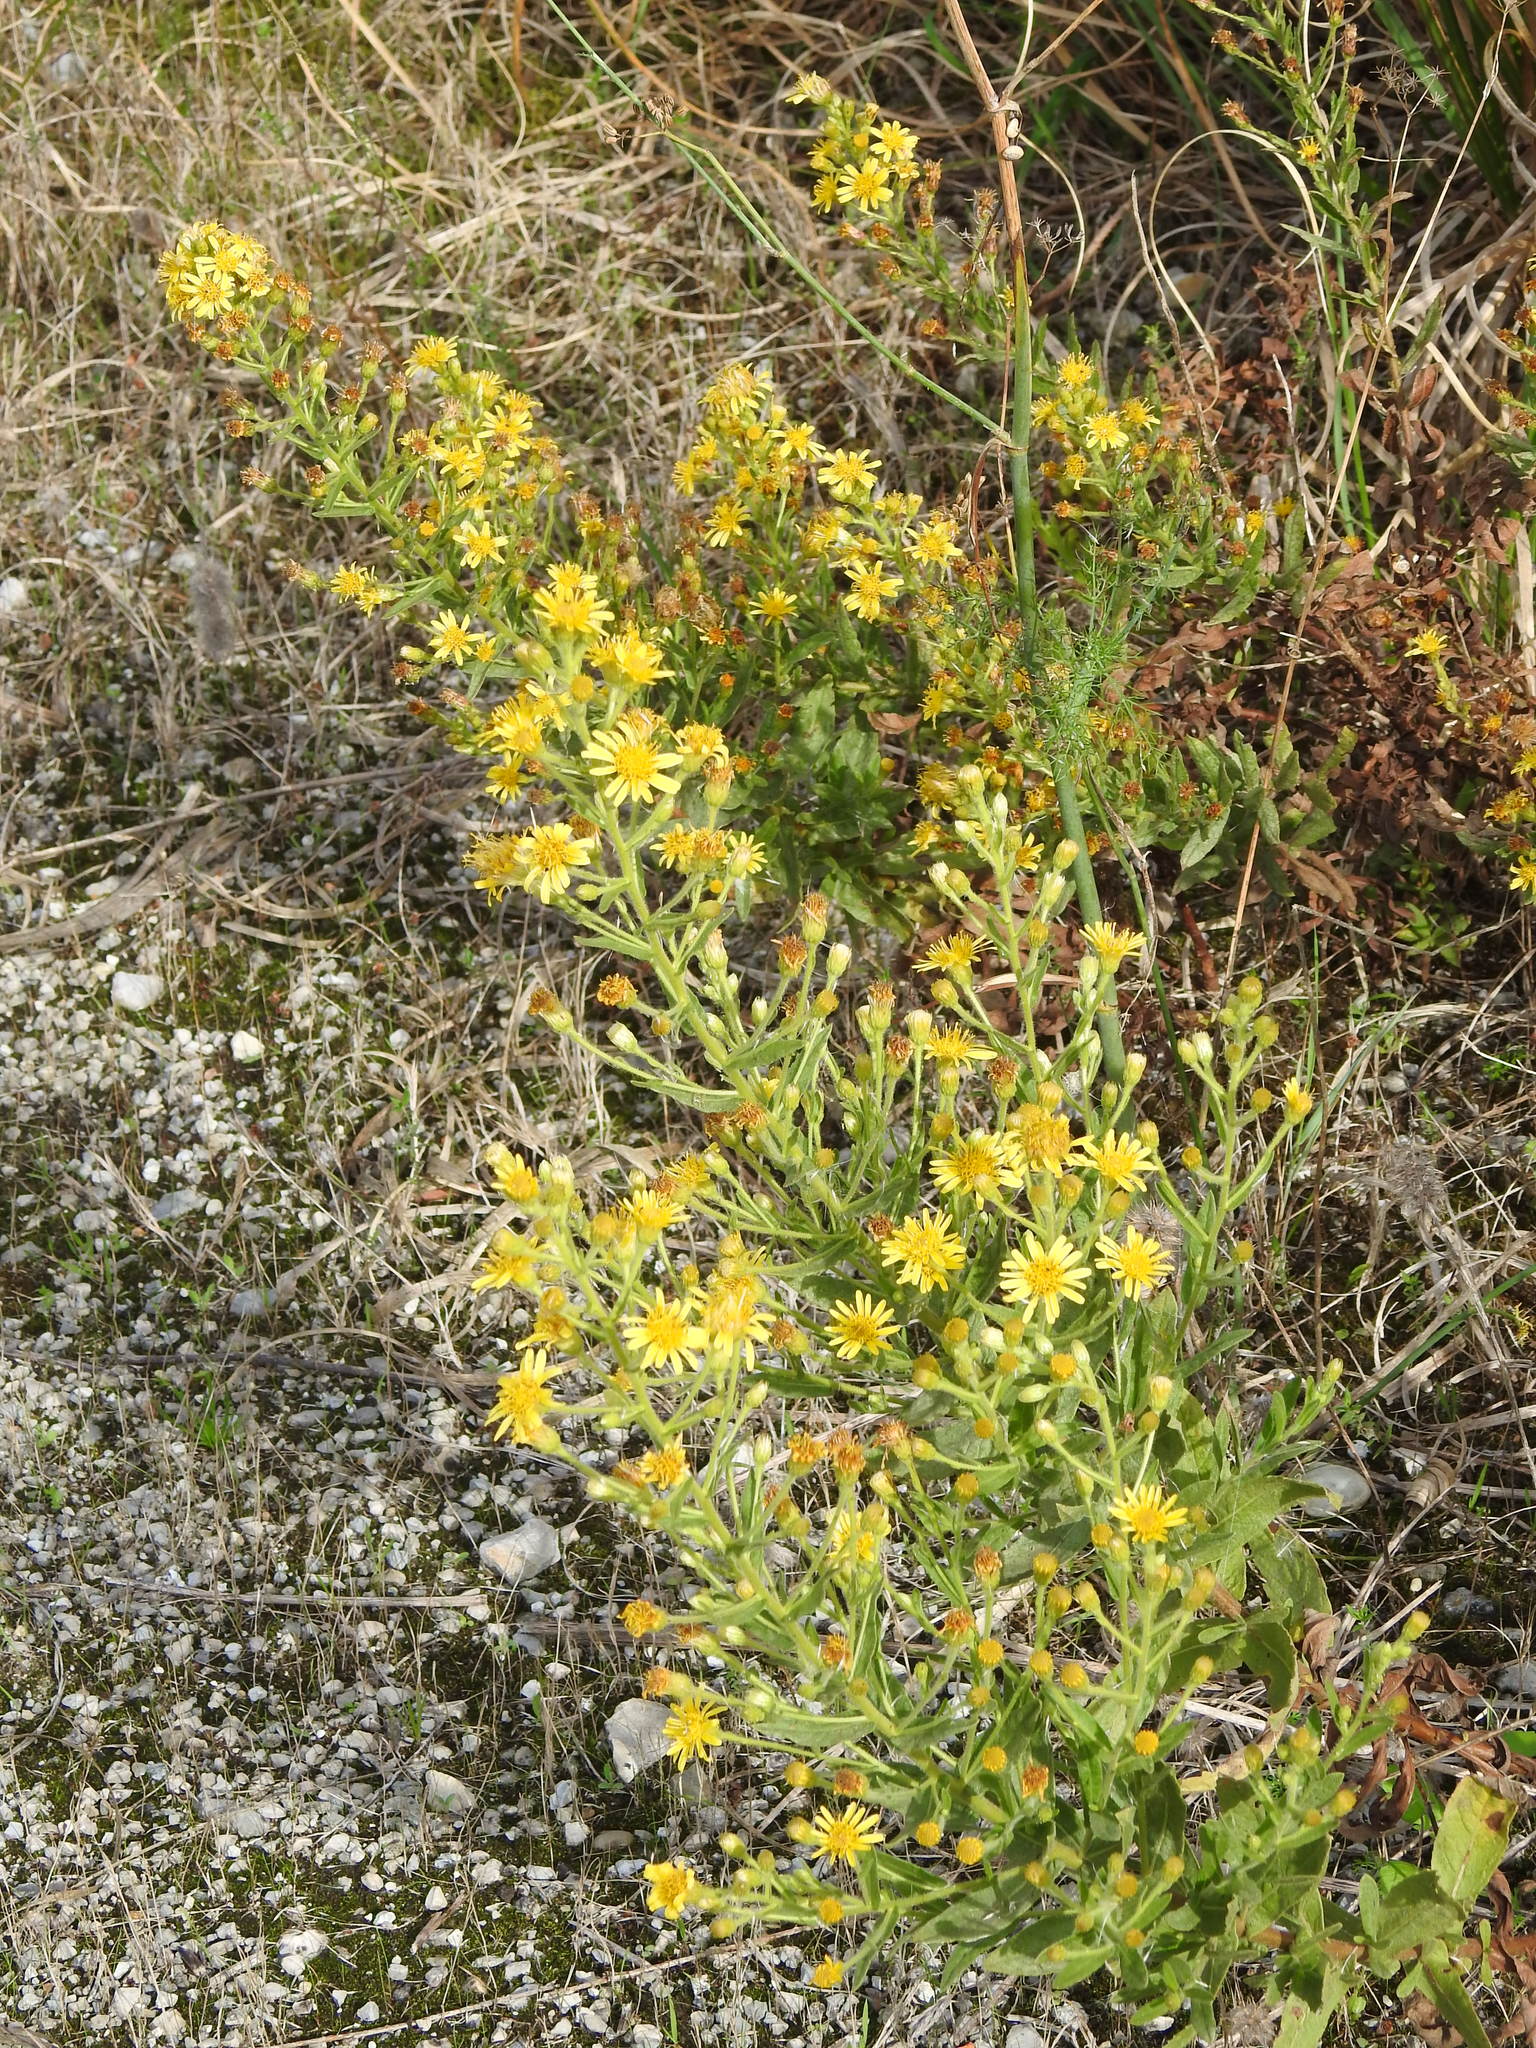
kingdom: Plantae
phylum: Tracheophyta
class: Magnoliopsida
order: Asterales
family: Asteraceae
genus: Dittrichia
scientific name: Dittrichia viscosa
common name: Woody fleabane
